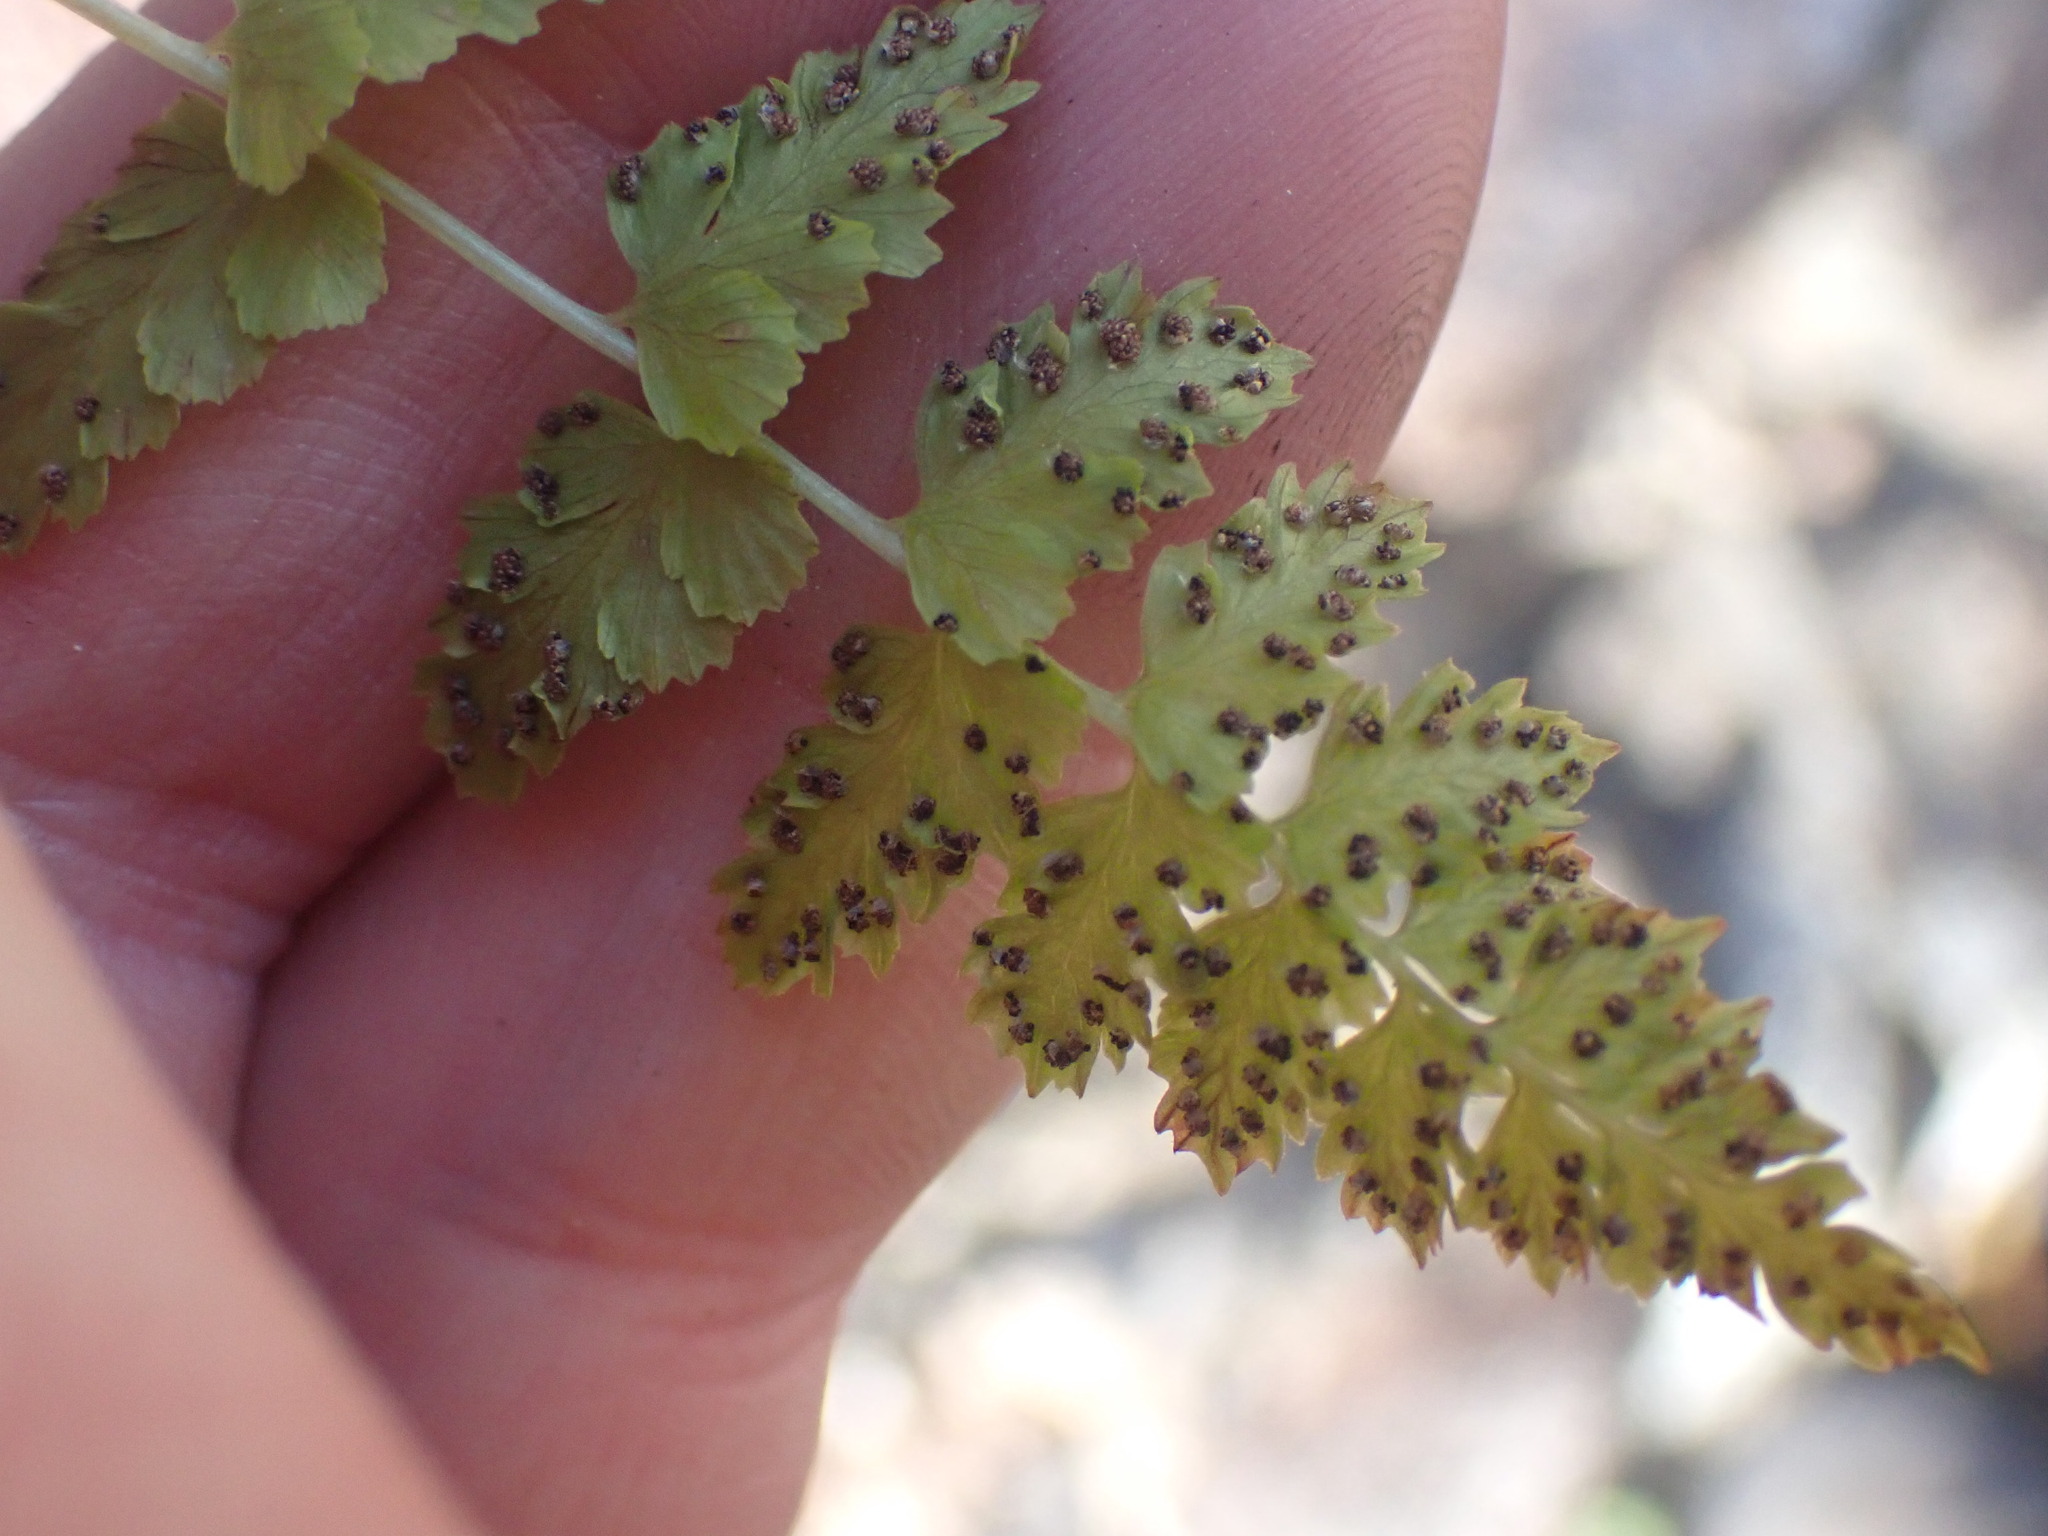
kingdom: Plantae
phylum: Tracheophyta
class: Polypodiopsida
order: Polypodiales
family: Cystopteridaceae
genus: Cystopteris
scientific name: Cystopteris fragilis
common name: Brittle bladder fern
